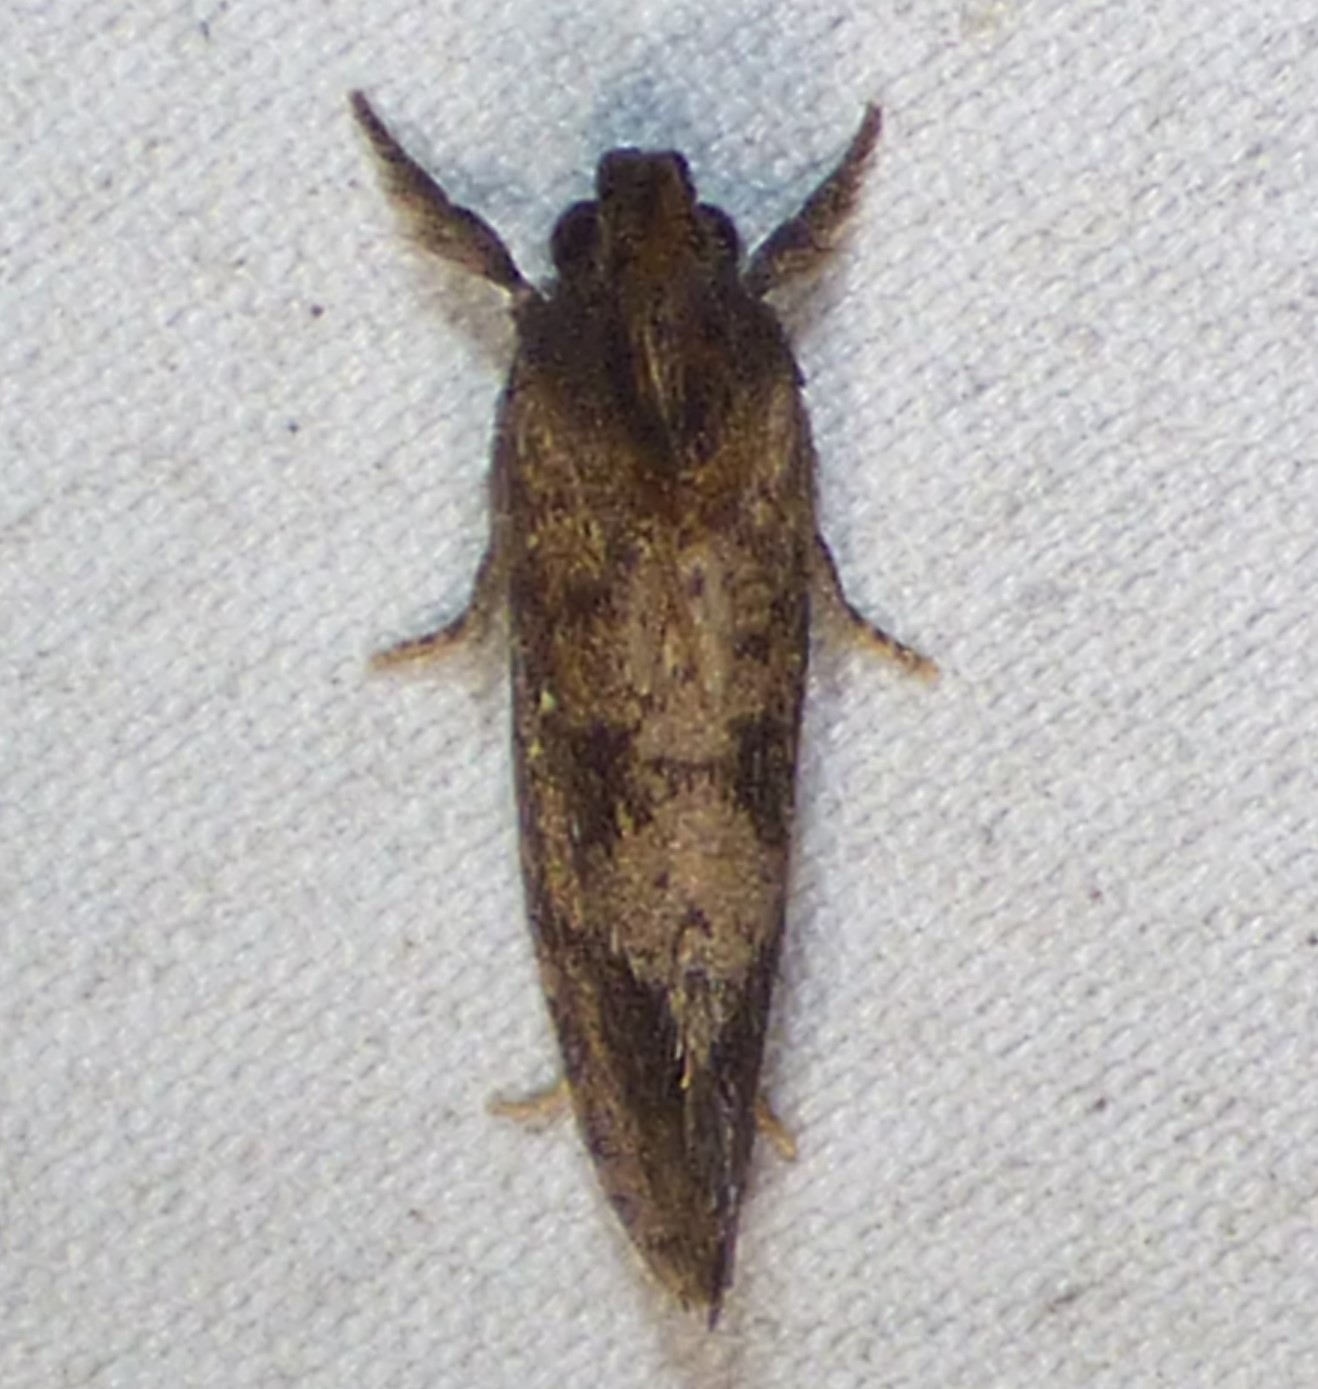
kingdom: Animalia
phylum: Arthropoda
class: Insecta
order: Lepidoptera
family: Tineidae
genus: Acrolophus
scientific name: Acrolophus texanella
